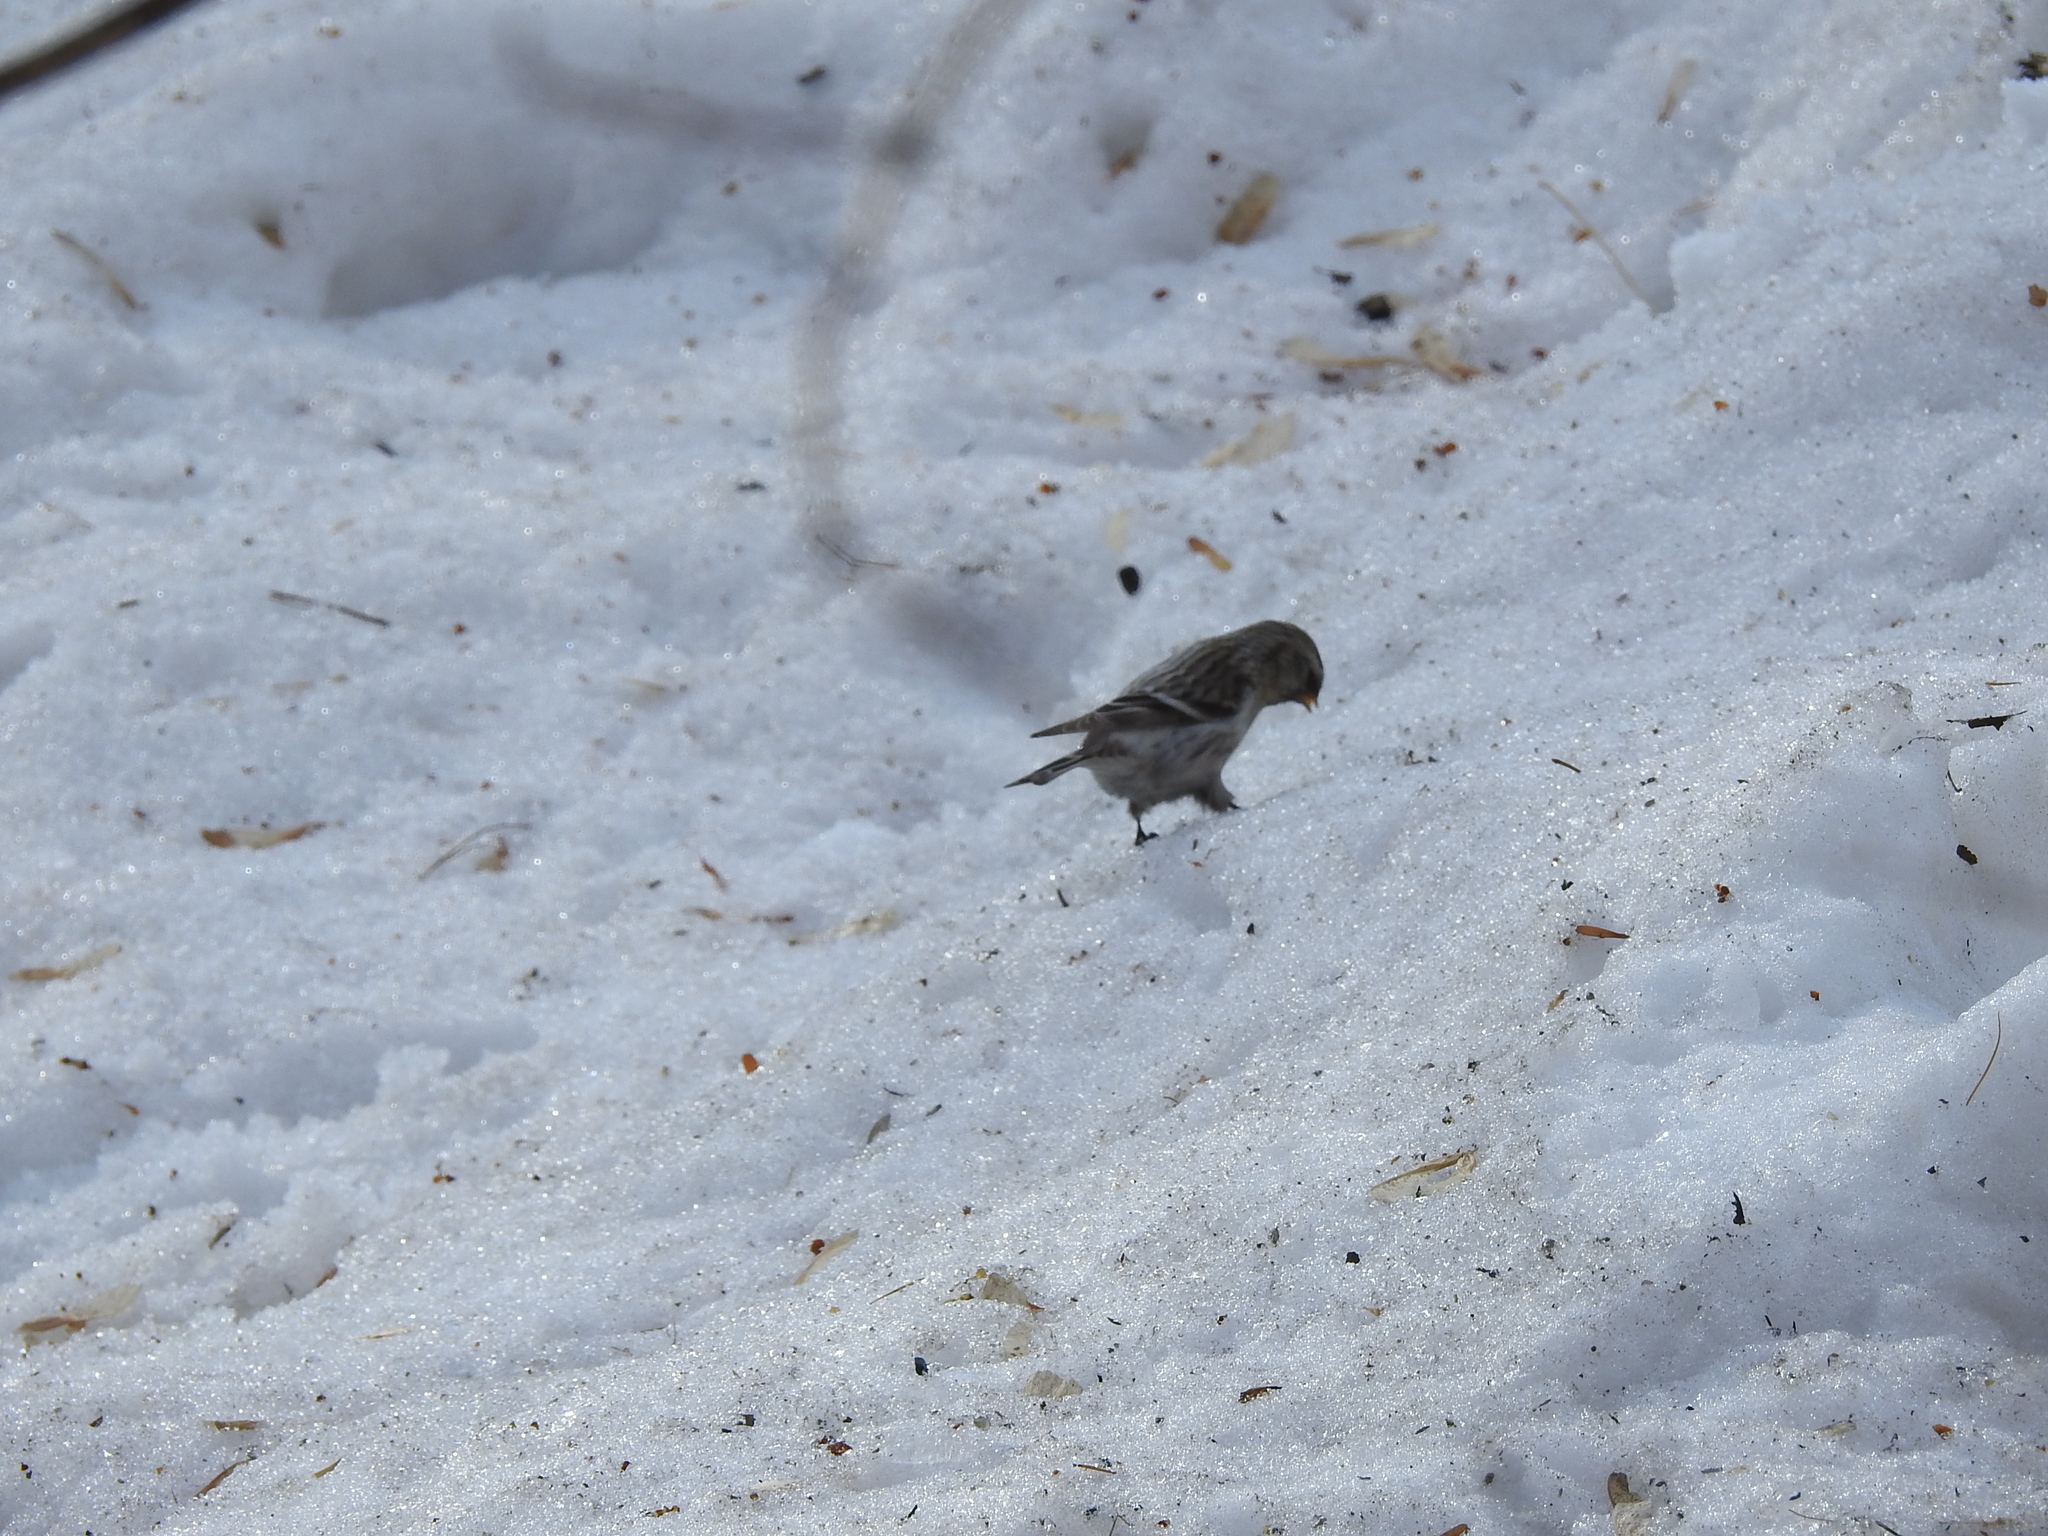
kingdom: Animalia
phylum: Chordata
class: Aves
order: Passeriformes
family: Fringillidae
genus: Acanthis
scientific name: Acanthis flammea
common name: Common redpoll
